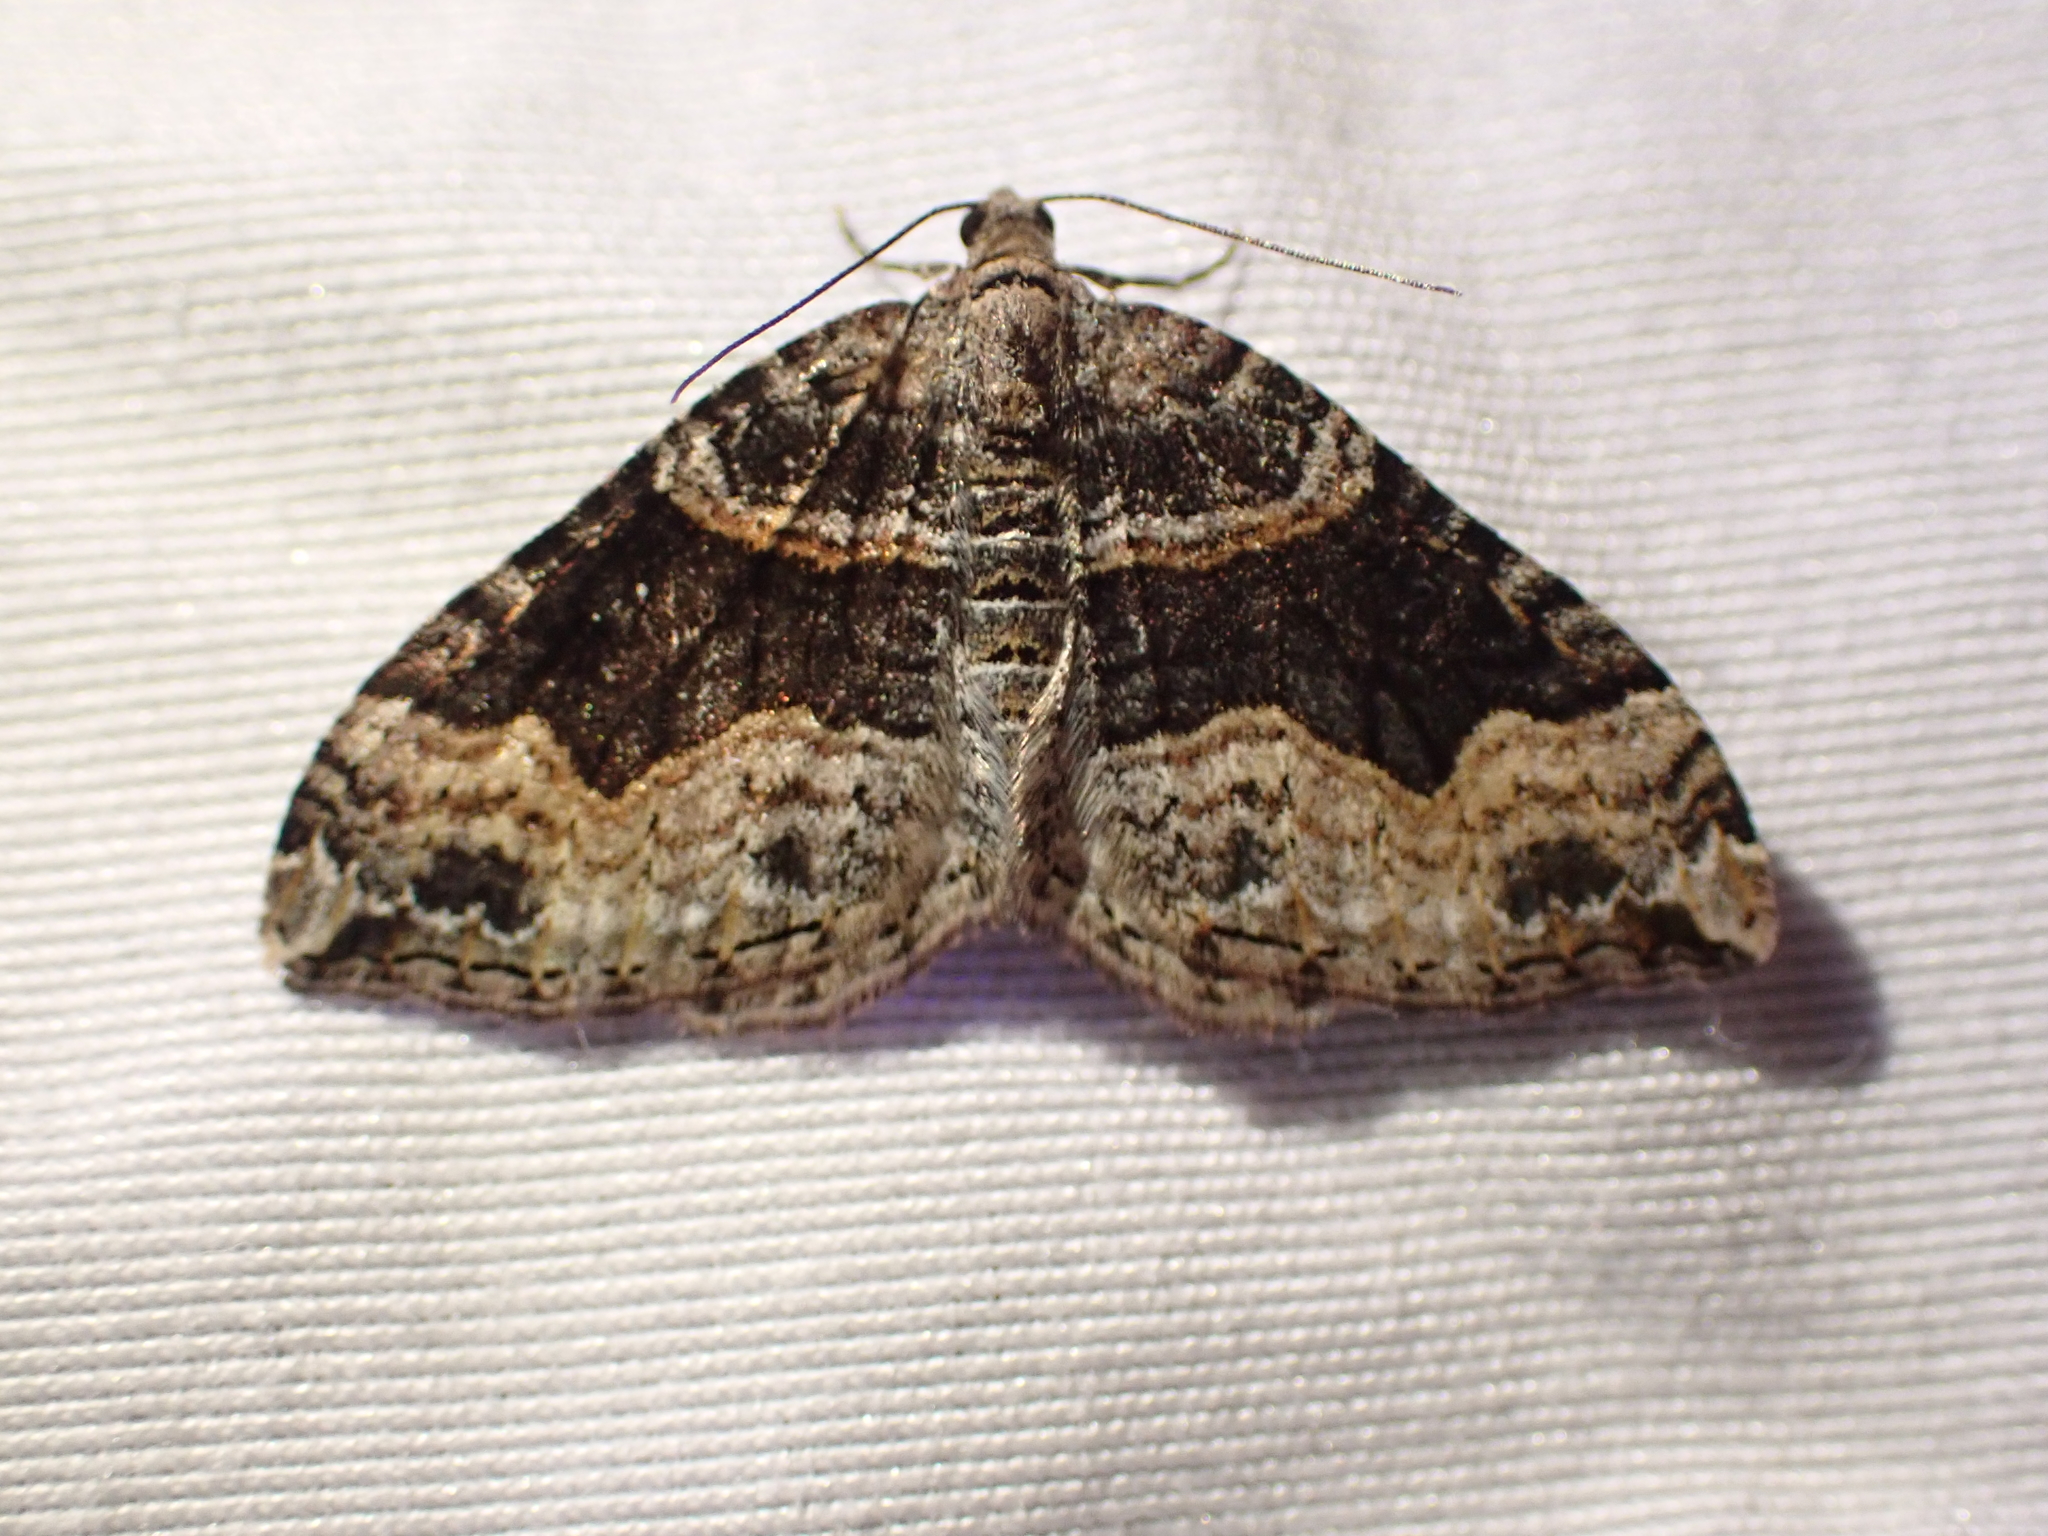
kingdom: Animalia
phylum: Arthropoda
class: Insecta
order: Lepidoptera
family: Geometridae
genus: Xanthorhoe
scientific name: Xanthorhoe defensaria
